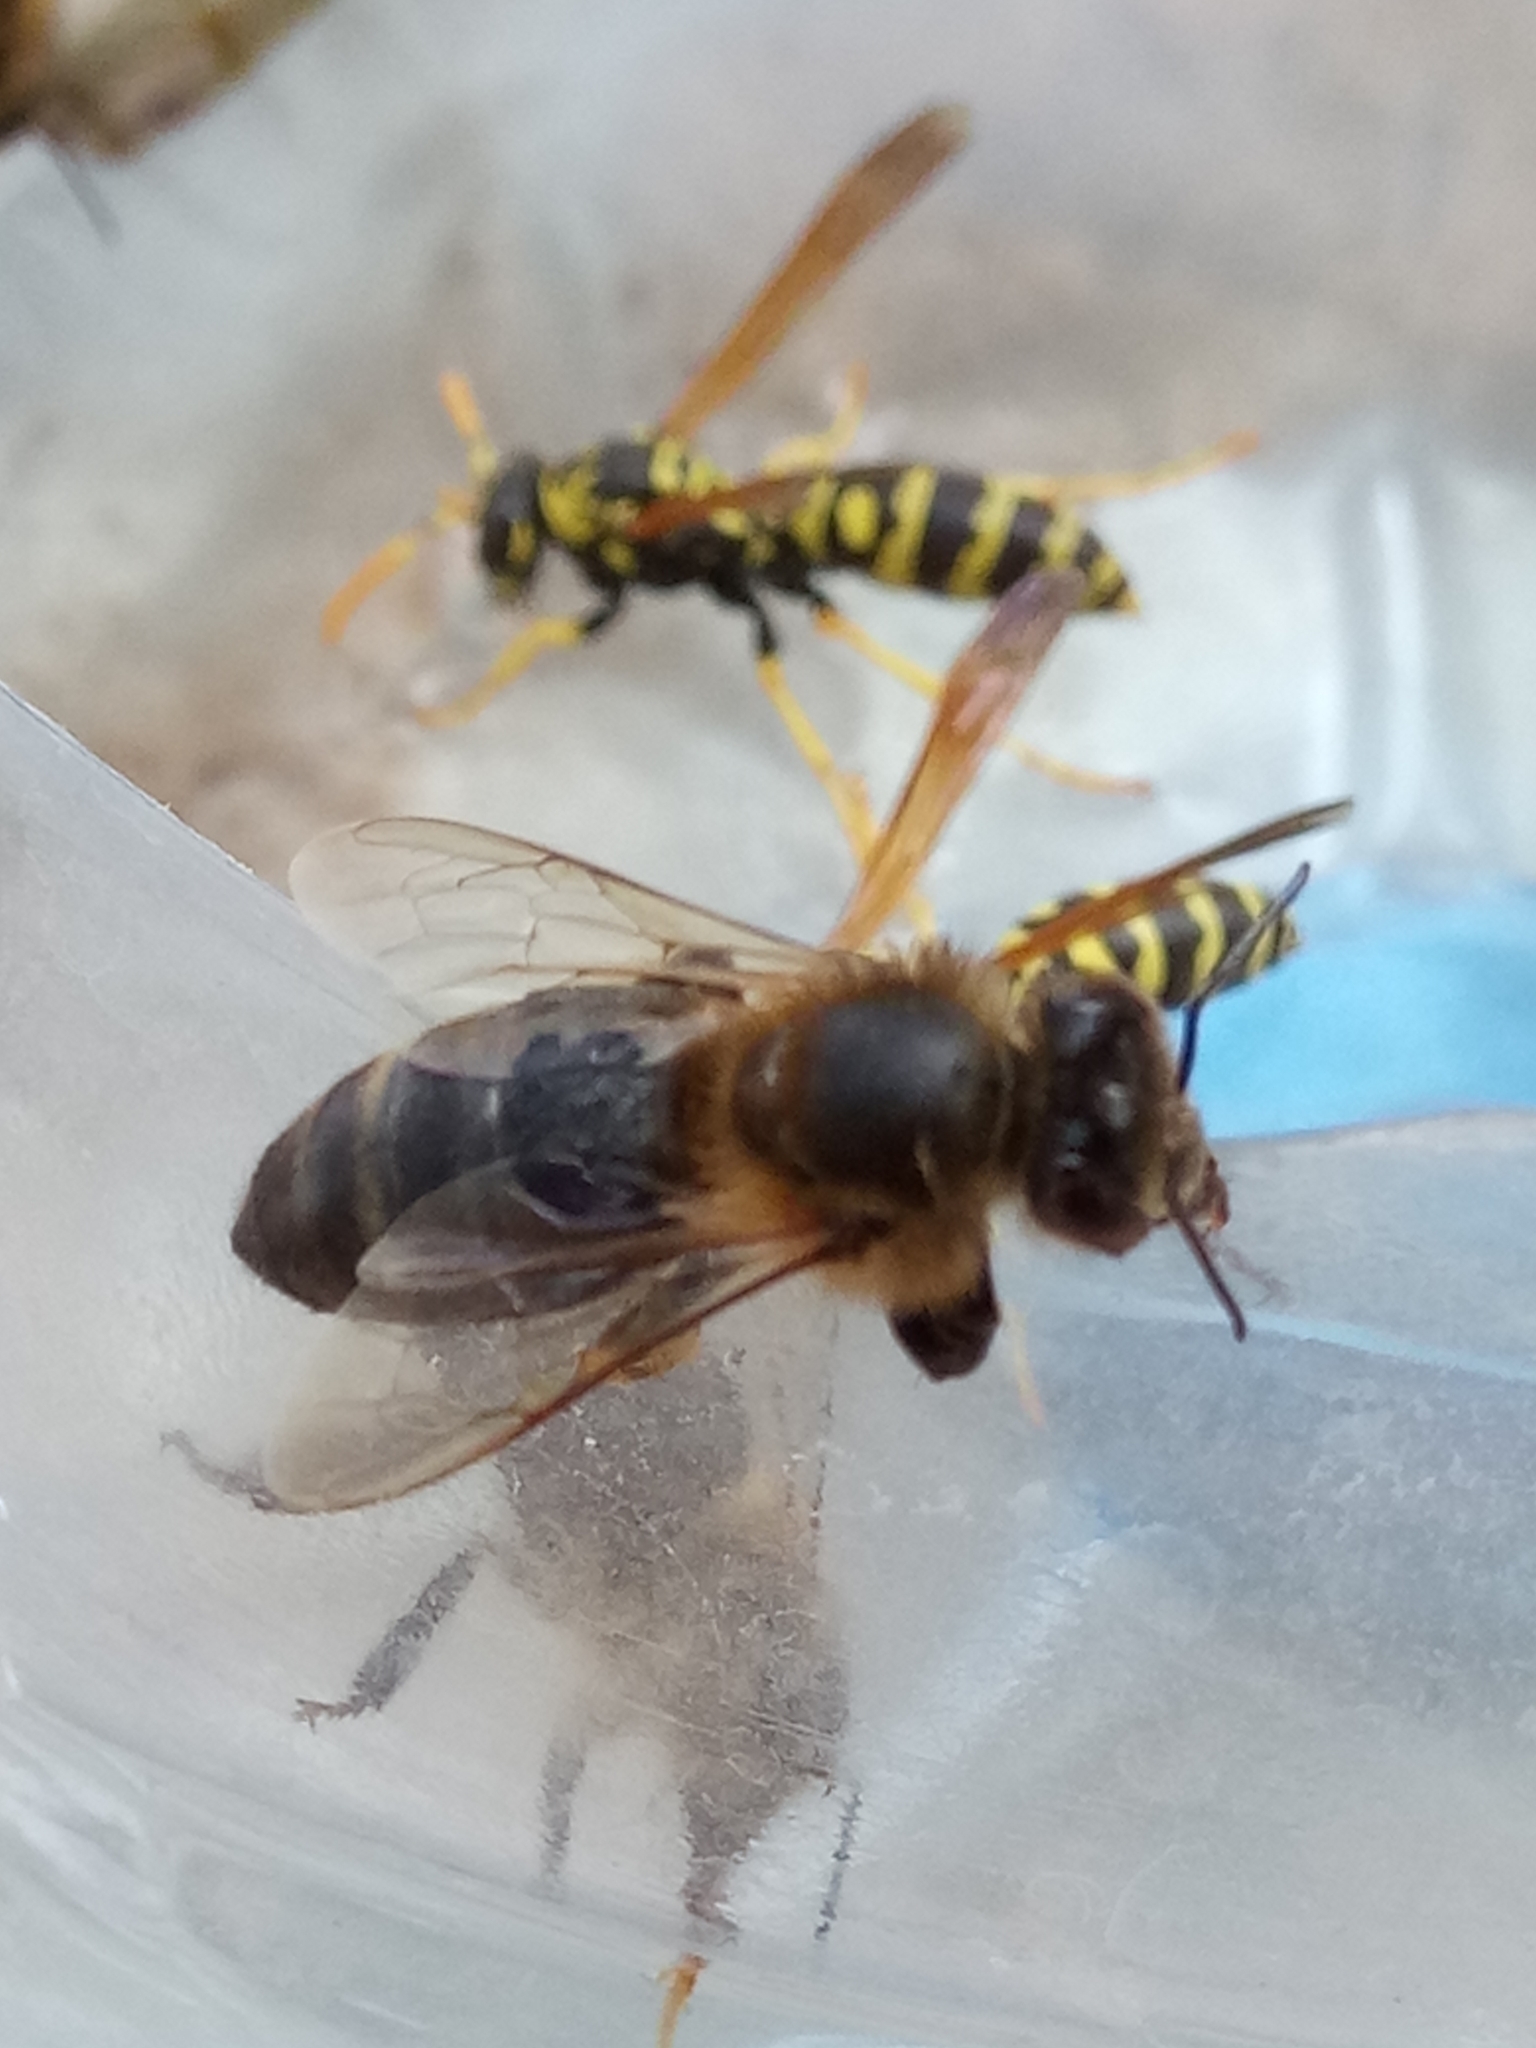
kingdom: Animalia
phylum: Arthropoda
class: Insecta
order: Hymenoptera
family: Apidae
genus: Apis
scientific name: Apis mellifera
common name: Honey bee
